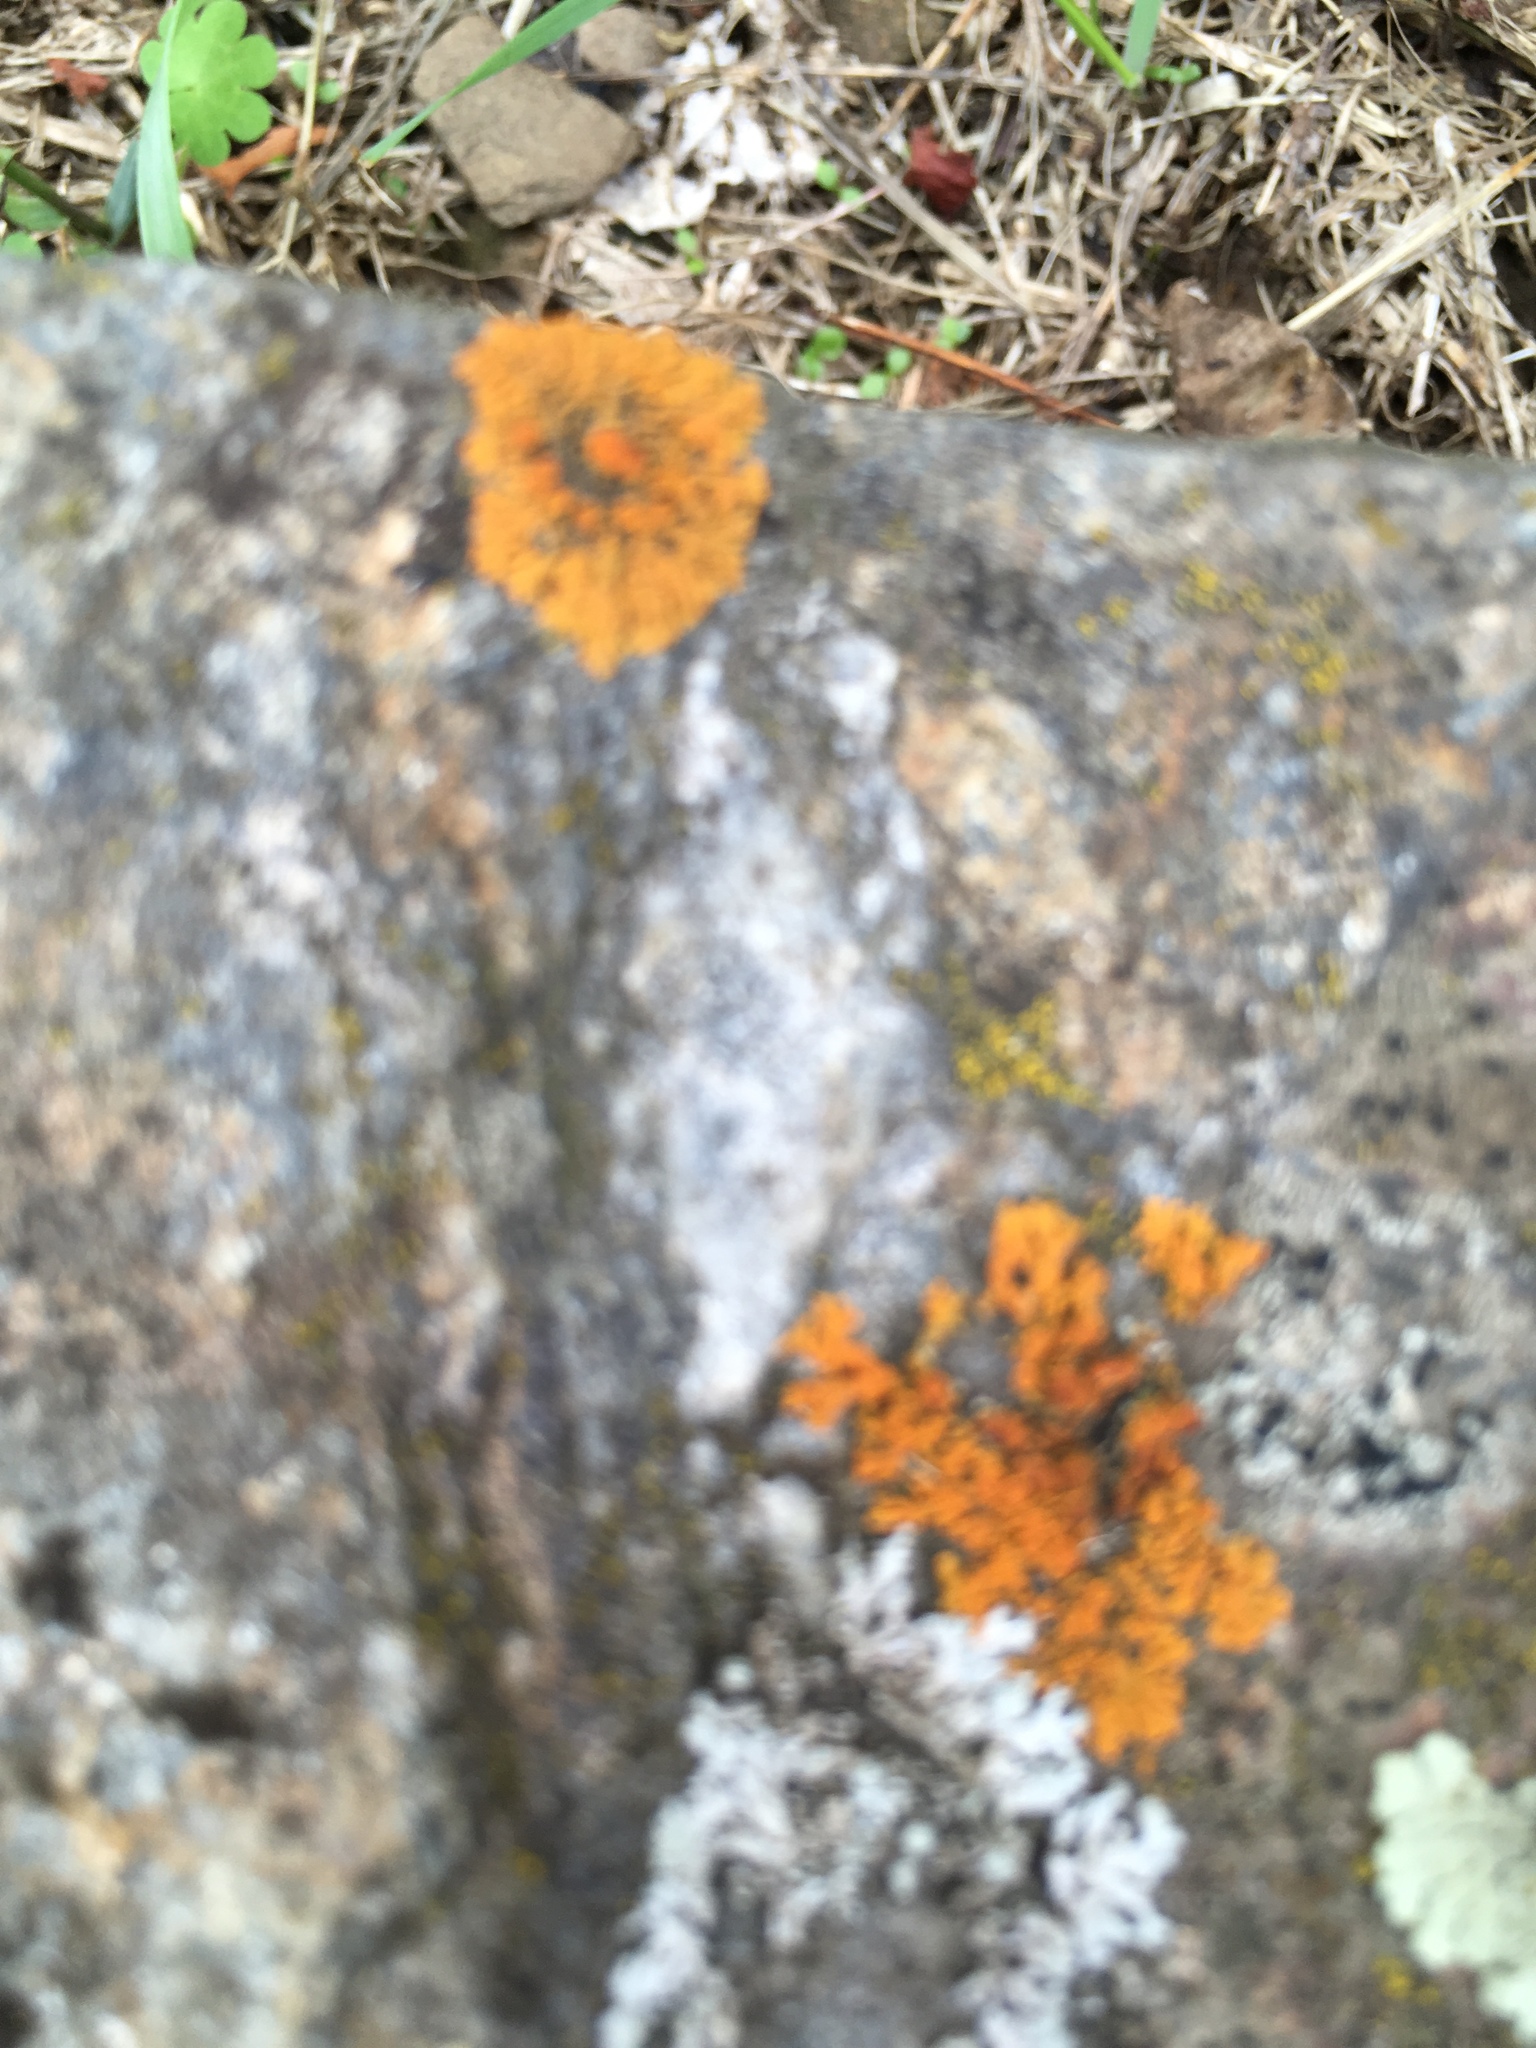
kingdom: Fungi
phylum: Ascomycota
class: Lecanoromycetes
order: Teloschistales
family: Teloschistaceae
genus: Xanthoria
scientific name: Xanthoria elegans
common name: Elegant sunburst lichen
